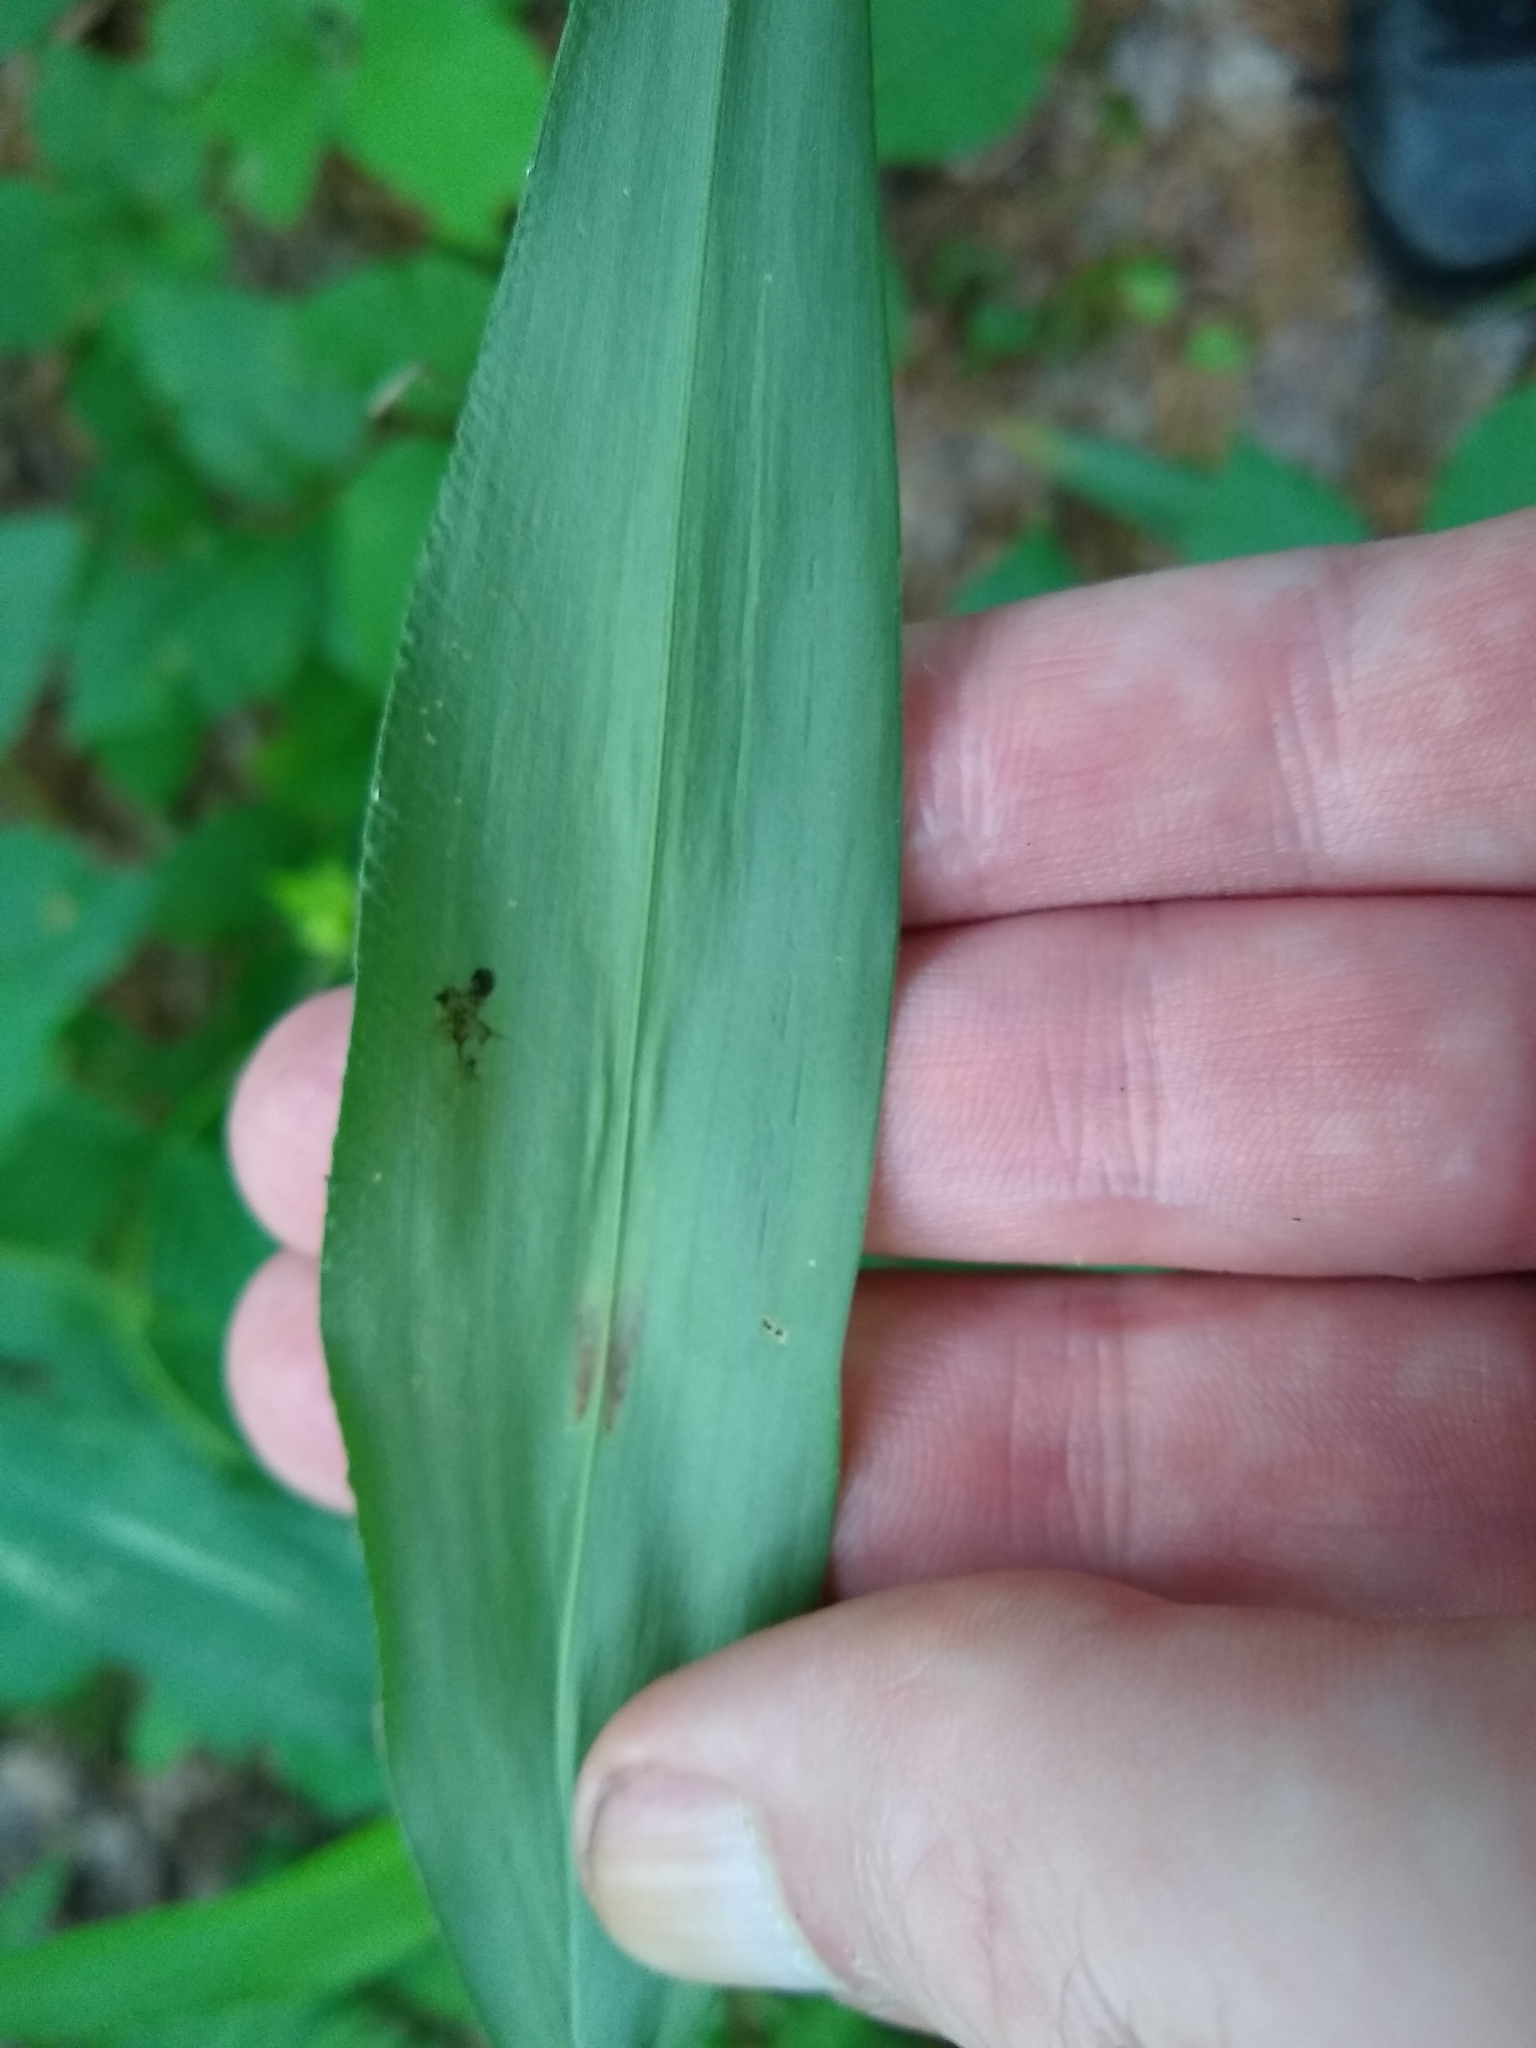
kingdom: Animalia
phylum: Arthropoda
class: Insecta
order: Diptera
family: Agromyzidae
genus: Cerodontha
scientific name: Cerodontha angulata
